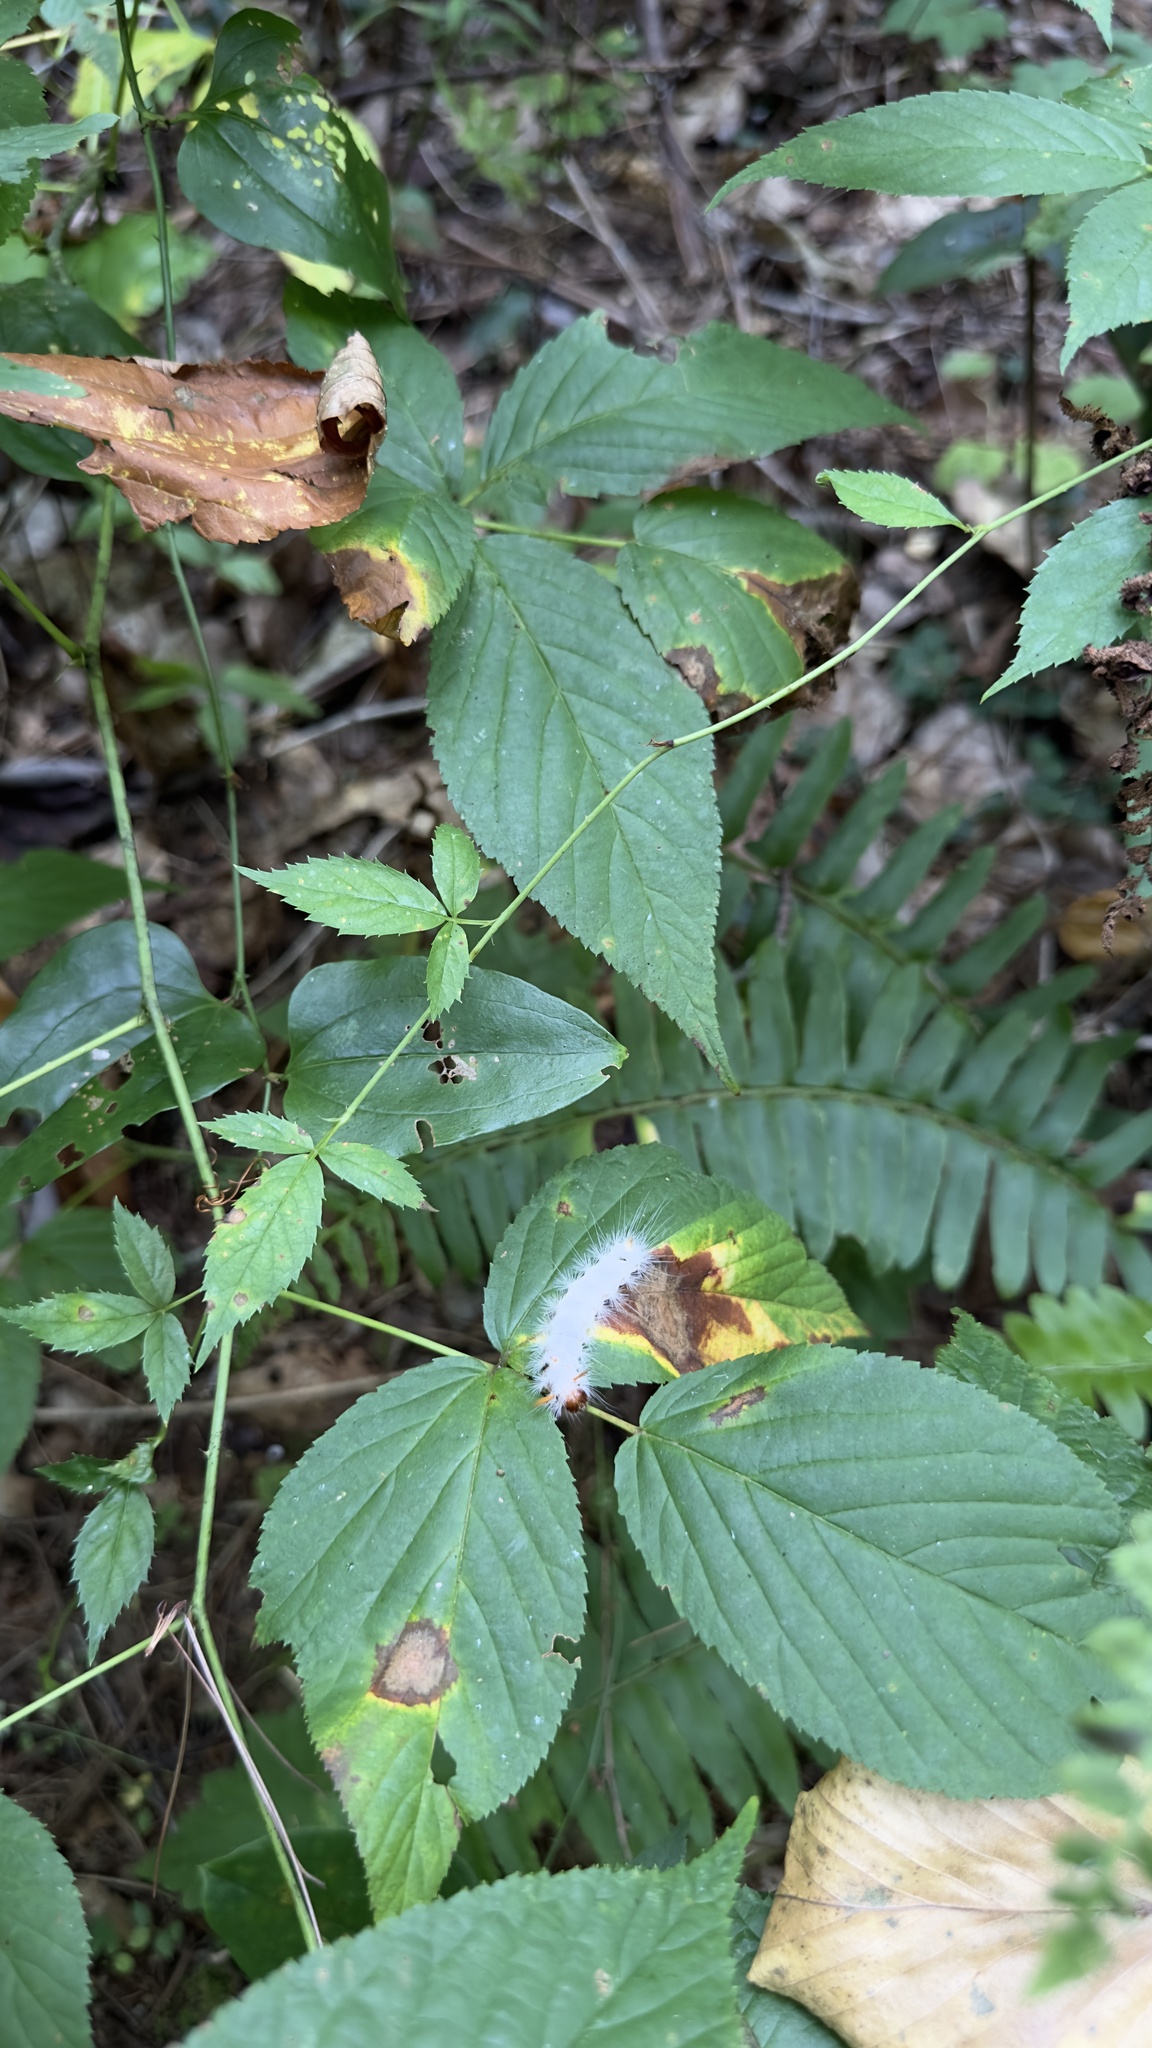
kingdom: Animalia
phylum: Arthropoda
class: Insecta
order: Lepidoptera
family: Erebidae
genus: Halysidota
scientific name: Halysidota harrisii
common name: Sycamore tussock moth
